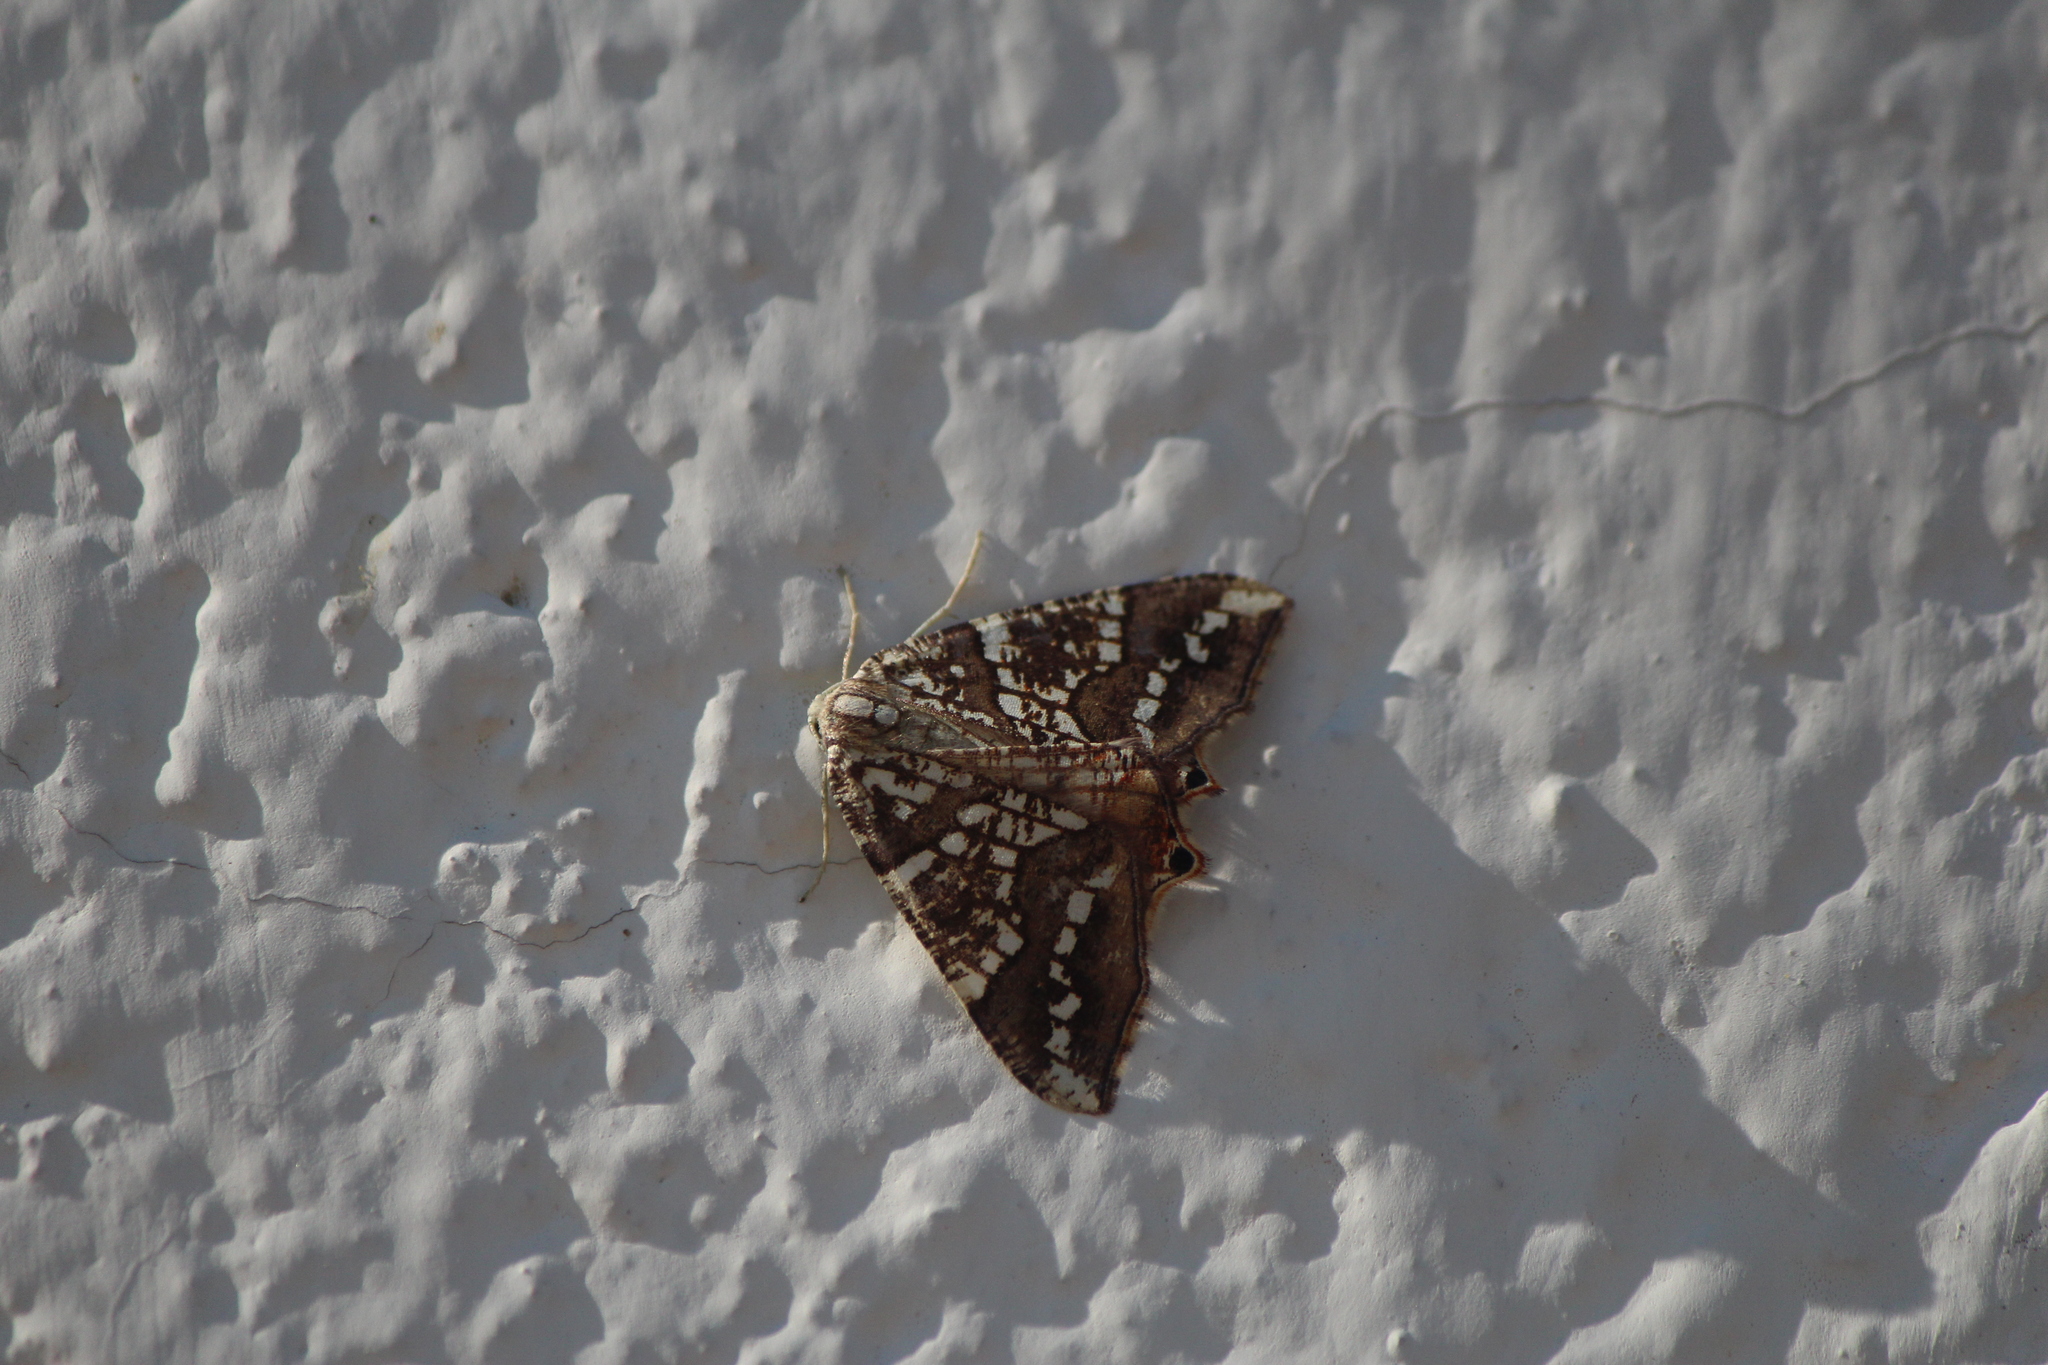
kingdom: Animalia
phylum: Arthropoda
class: Insecta
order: Lepidoptera
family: Geometridae
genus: Rindgeria
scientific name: Rindgeria ornata
